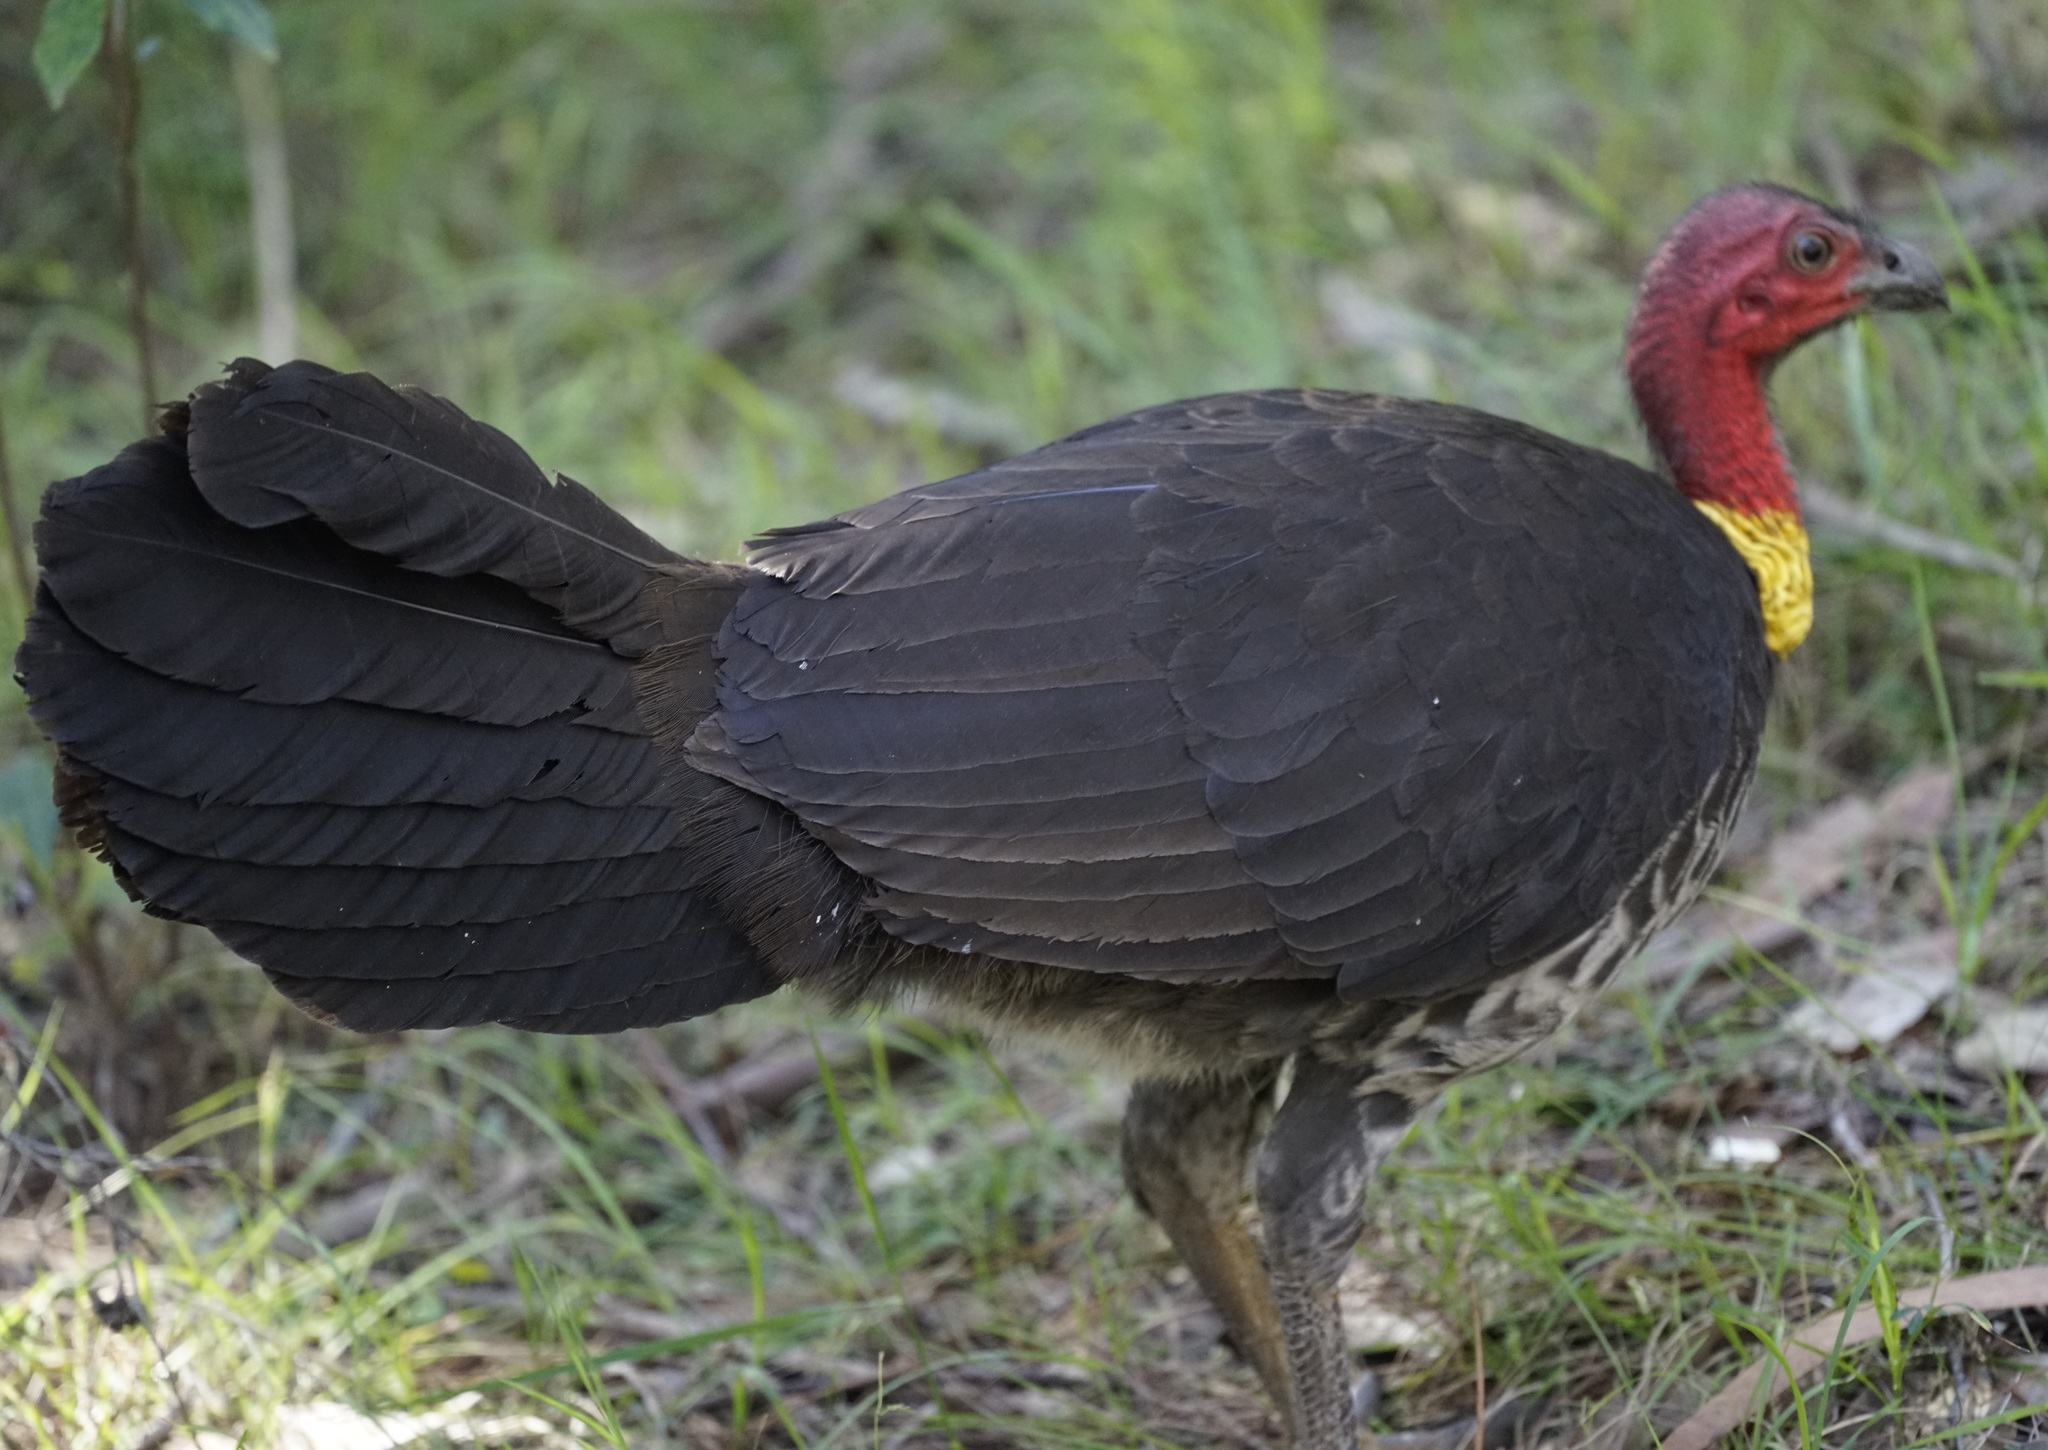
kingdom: Animalia
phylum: Chordata
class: Aves
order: Galliformes
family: Megapodiidae
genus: Alectura
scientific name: Alectura lathami
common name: Australian brushturkey
